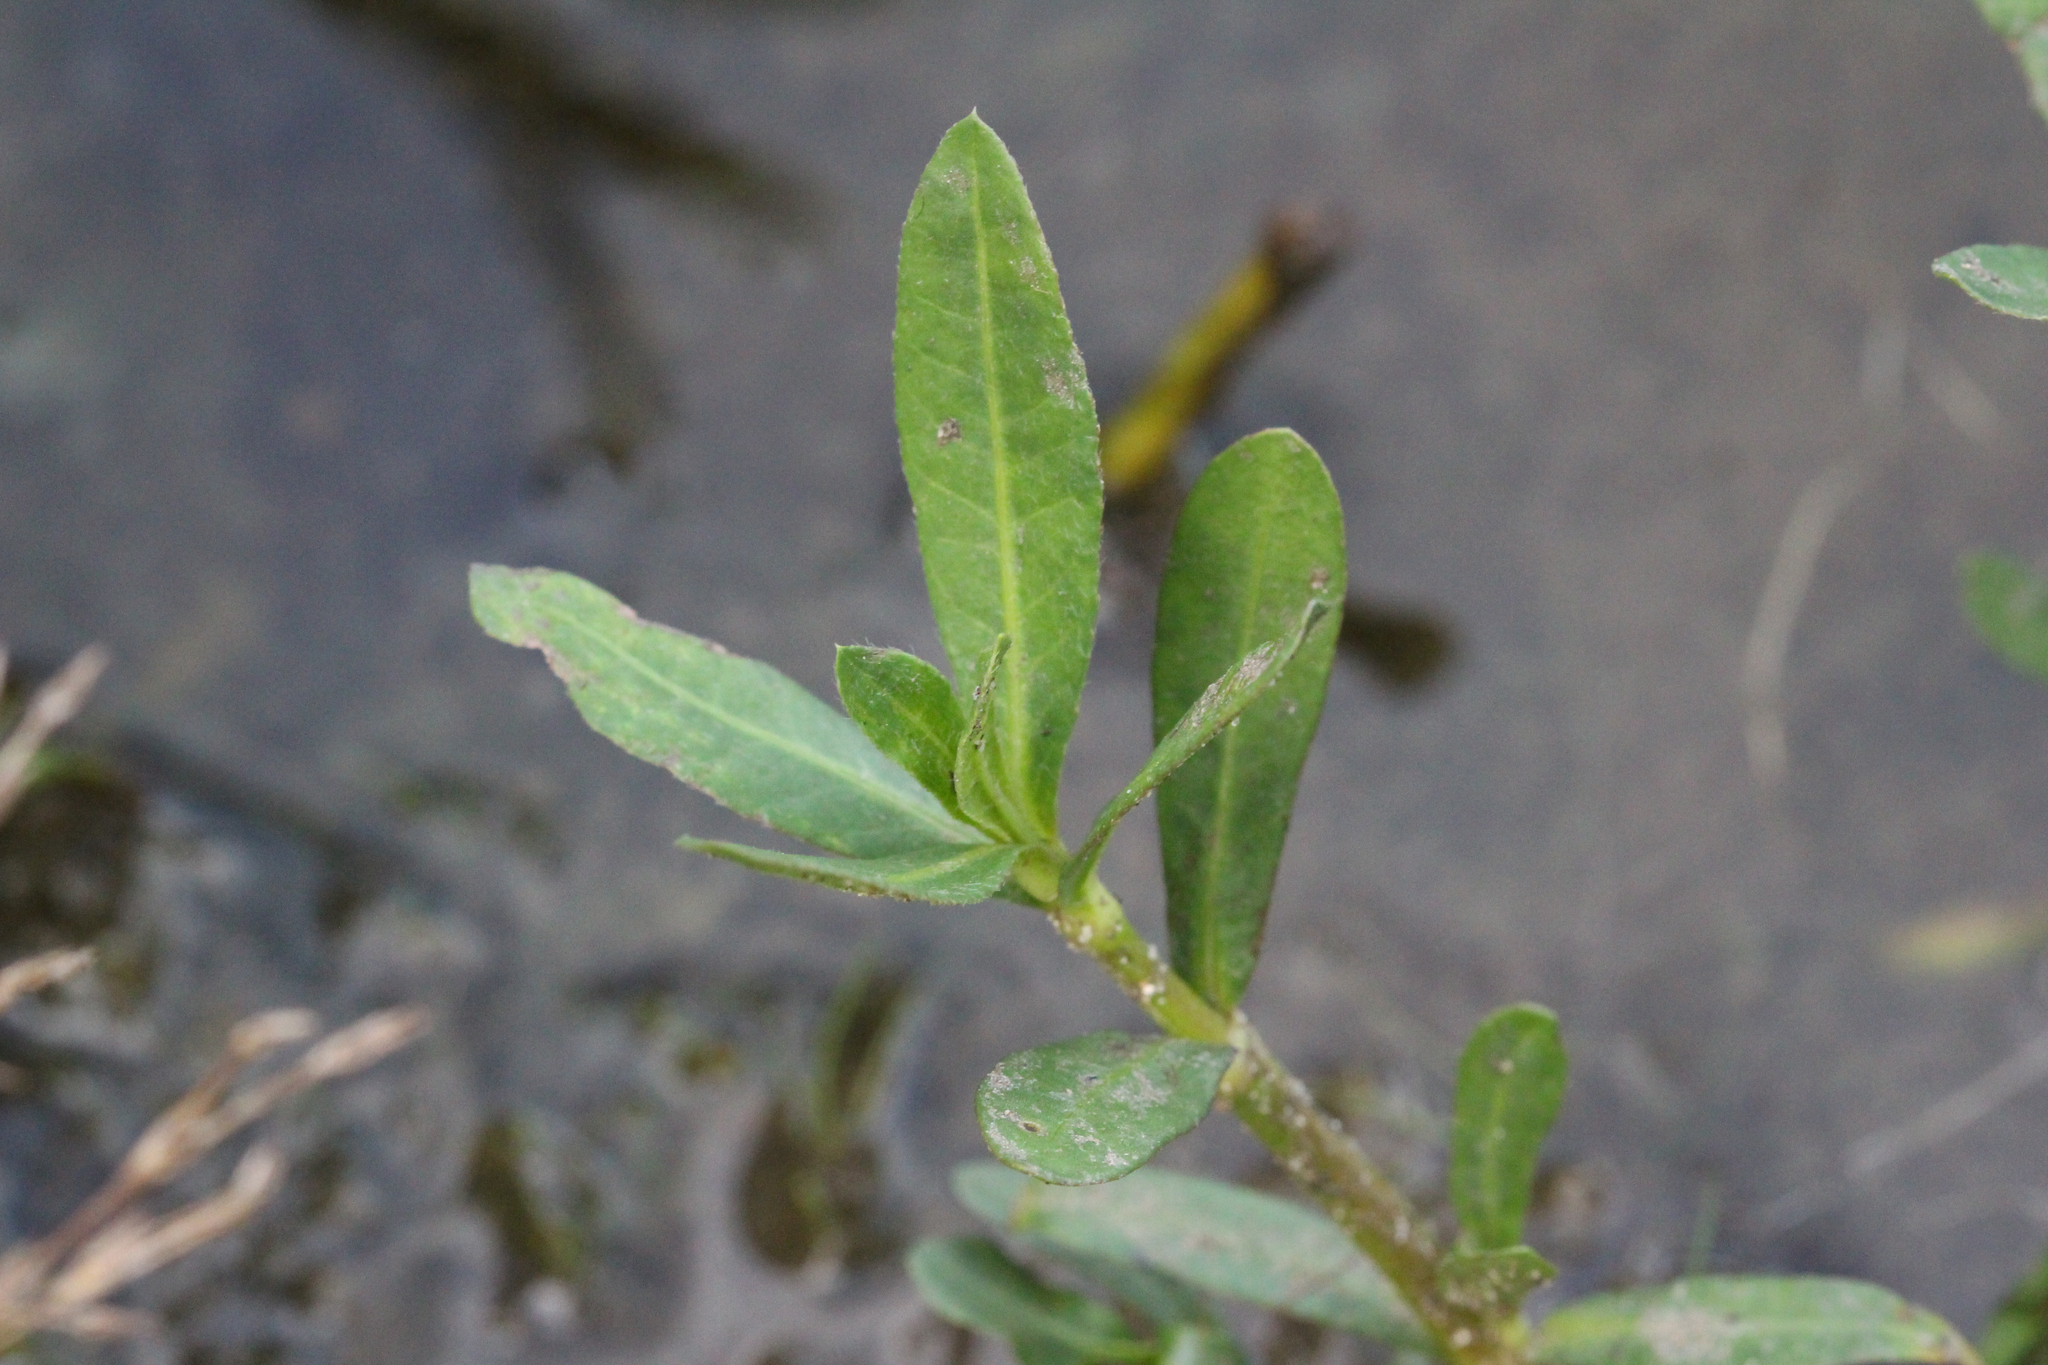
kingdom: Plantae
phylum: Tracheophyta
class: Magnoliopsida
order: Caryophyllales
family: Amaranthaceae
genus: Alternanthera
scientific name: Alternanthera philoxeroides
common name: Alligatorweed
